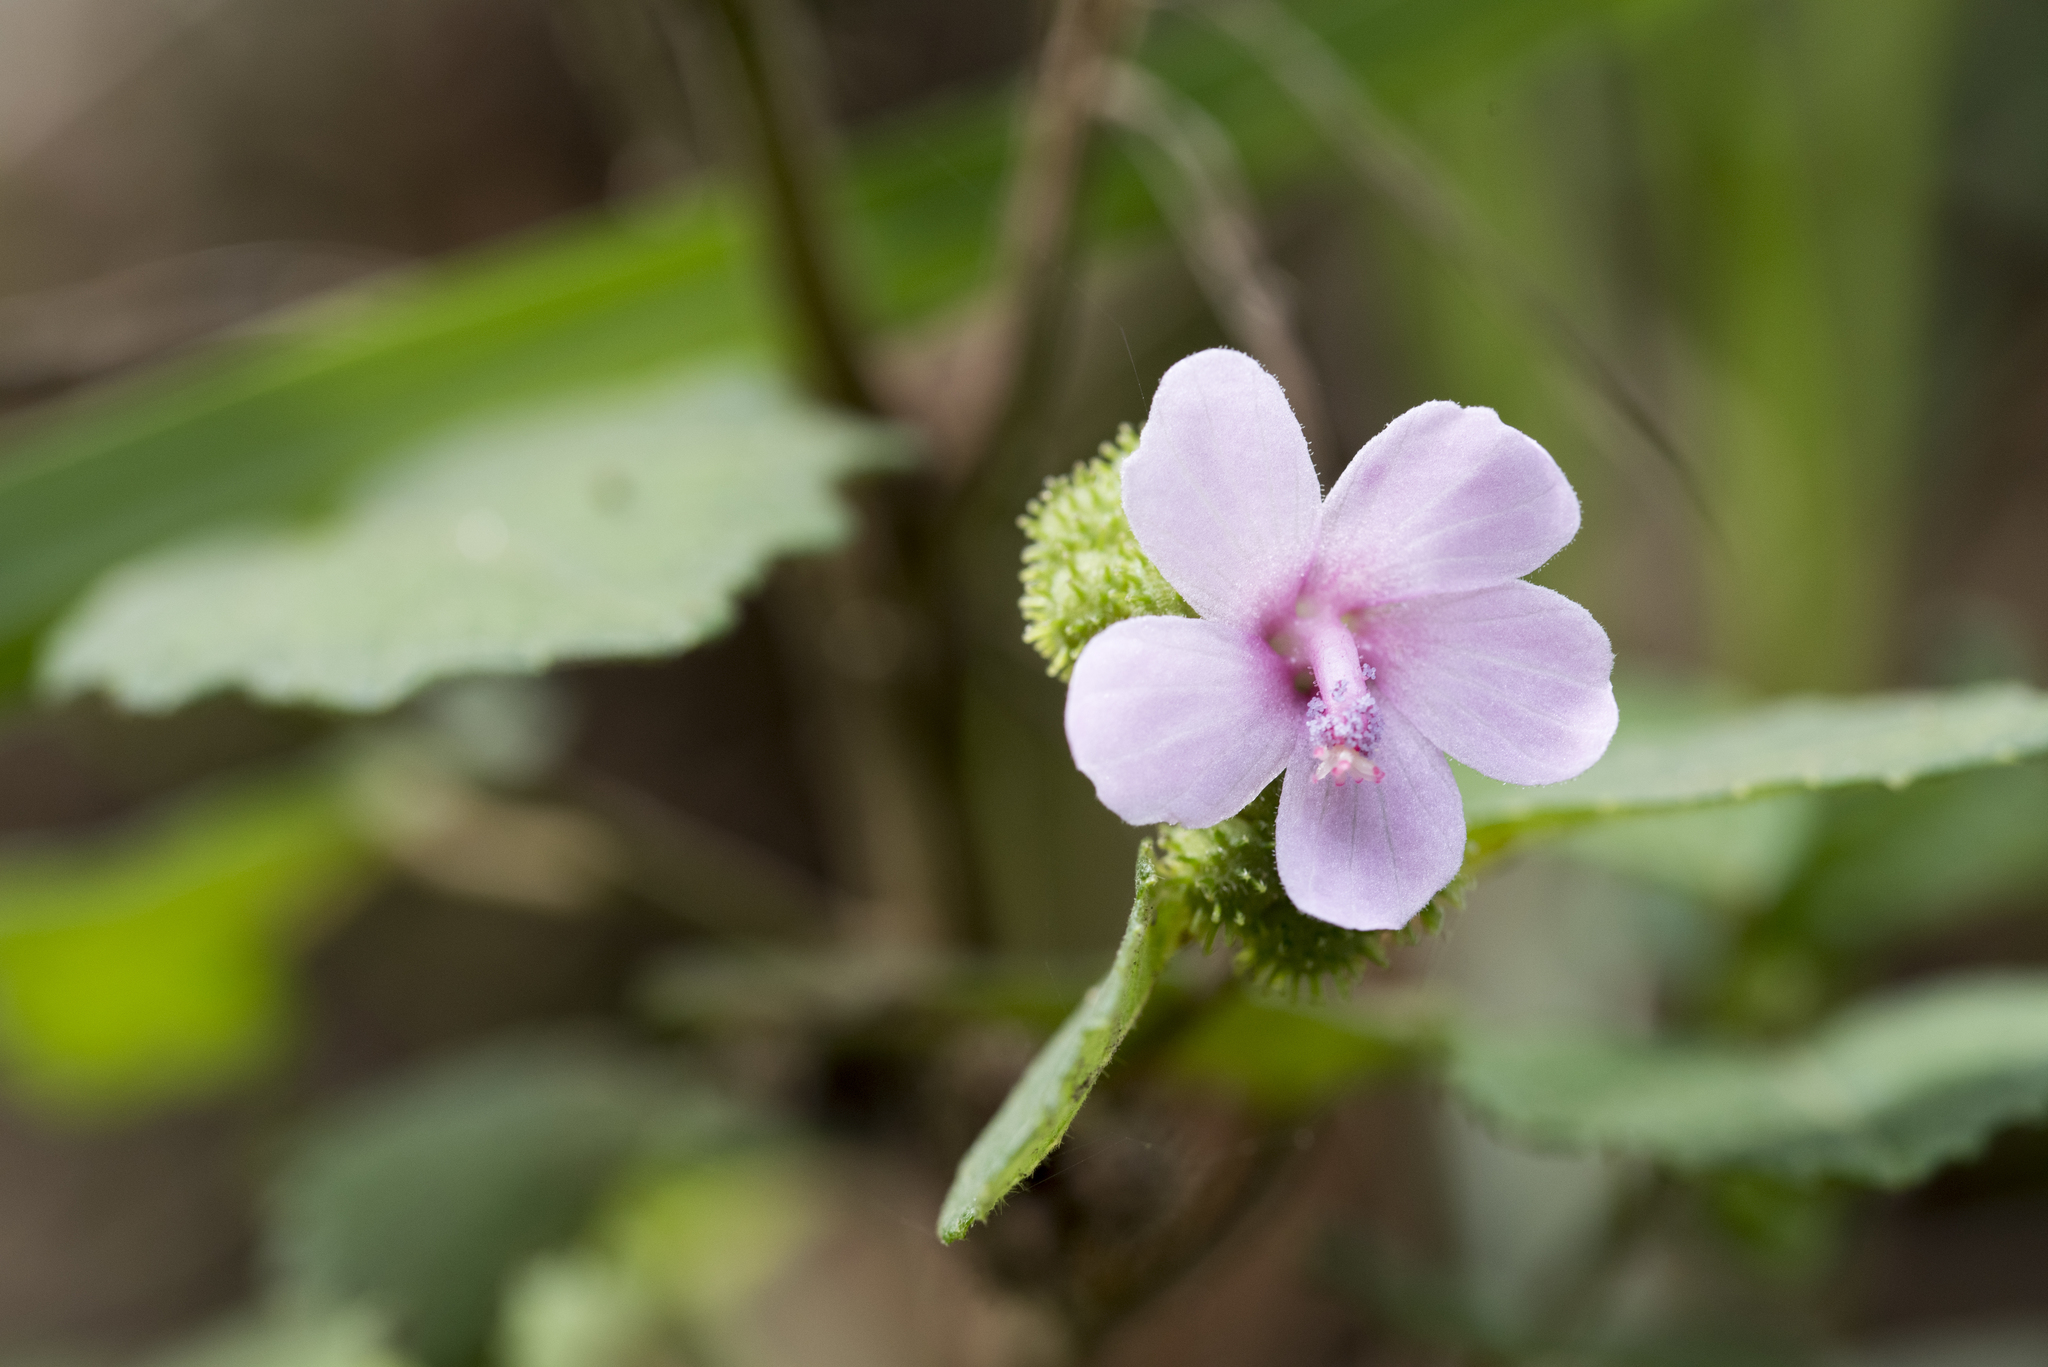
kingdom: Plantae
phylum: Tracheophyta
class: Magnoliopsida
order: Malvales
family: Malvaceae
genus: Urena
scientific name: Urena lobata
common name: Caesarweed
